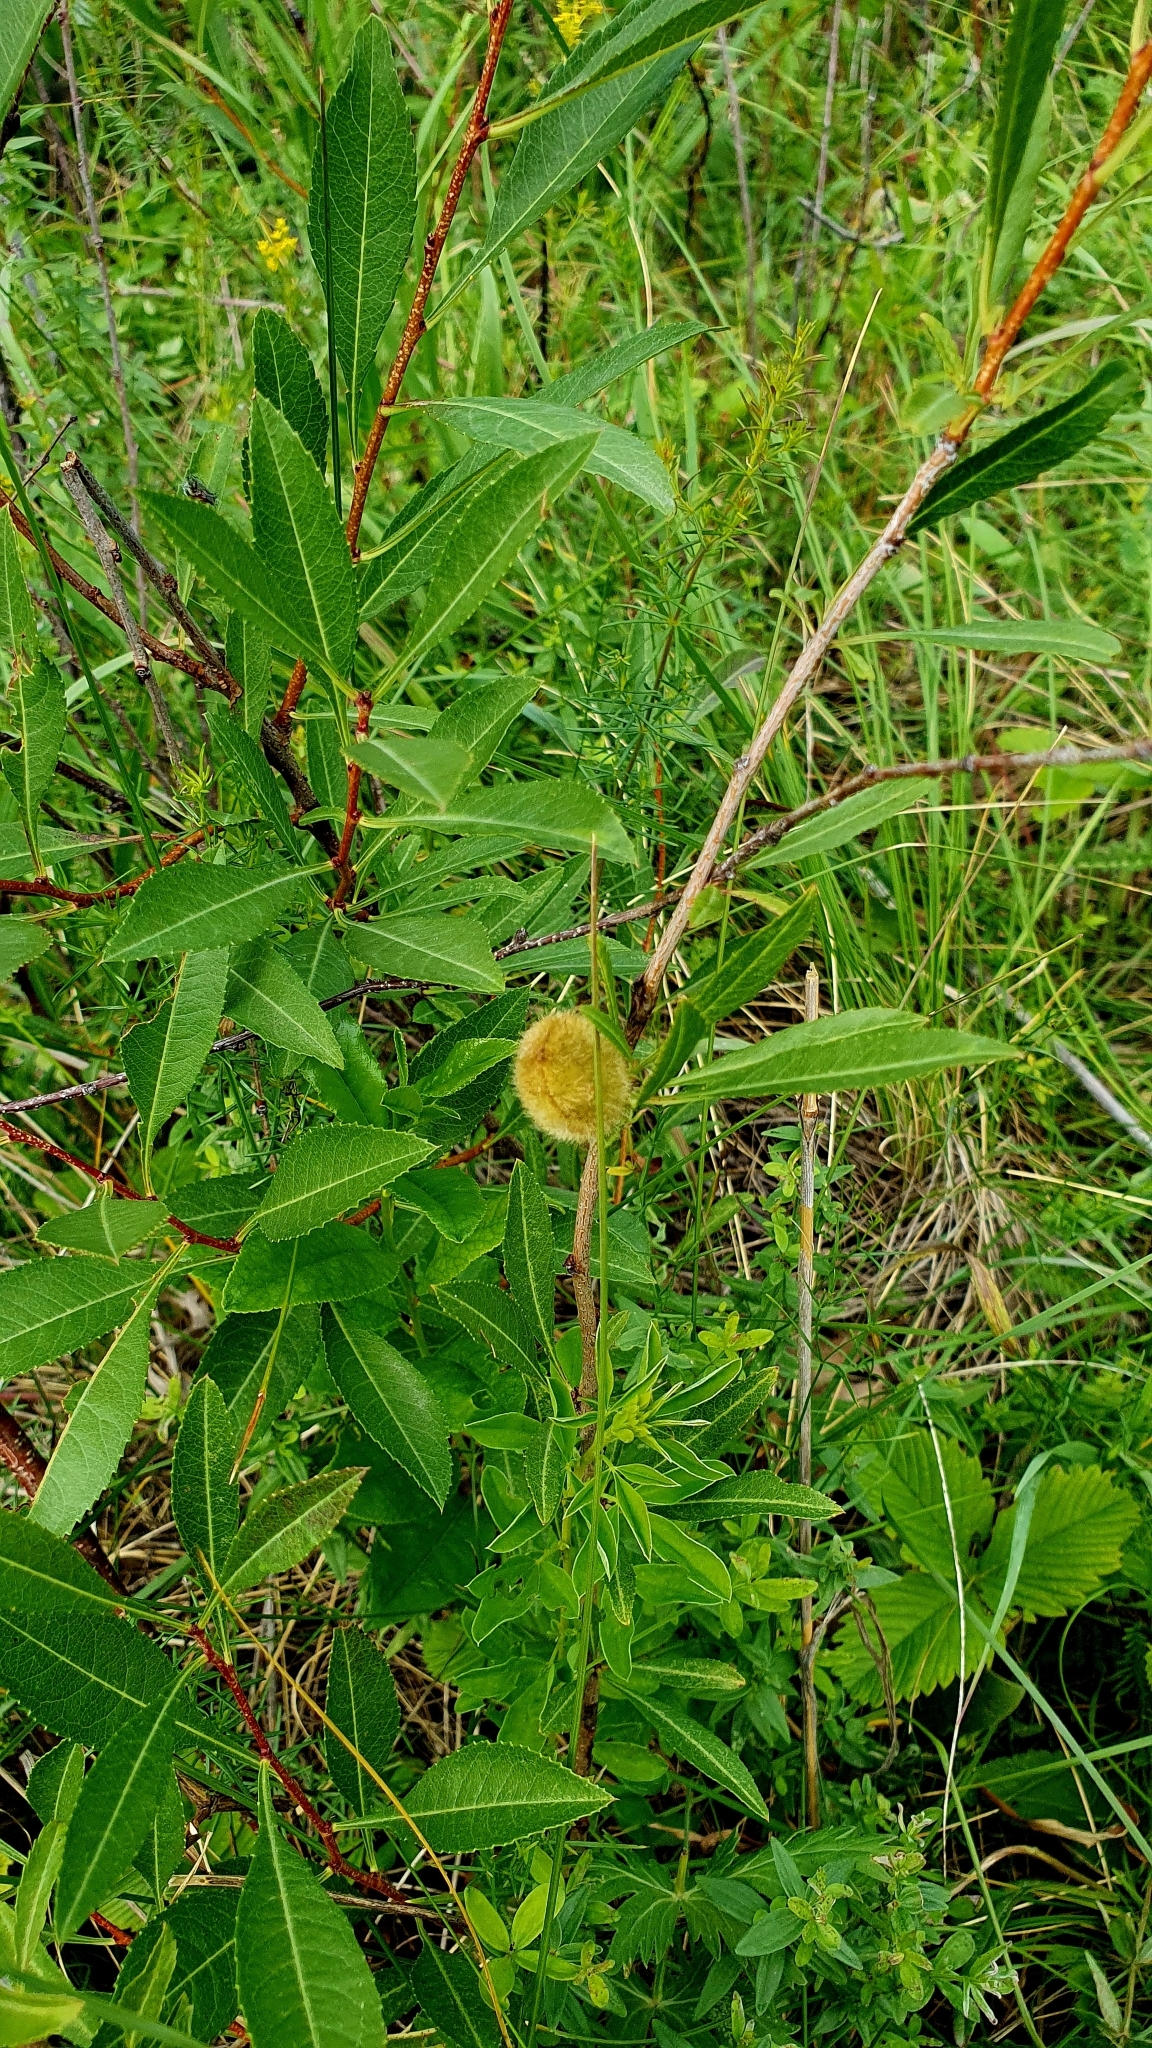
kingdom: Plantae
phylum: Tracheophyta
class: Magnoliopsida
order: Rosales
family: Rosaceae
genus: Prunus
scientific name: Prunus tenella
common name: Dwarf russian almond
